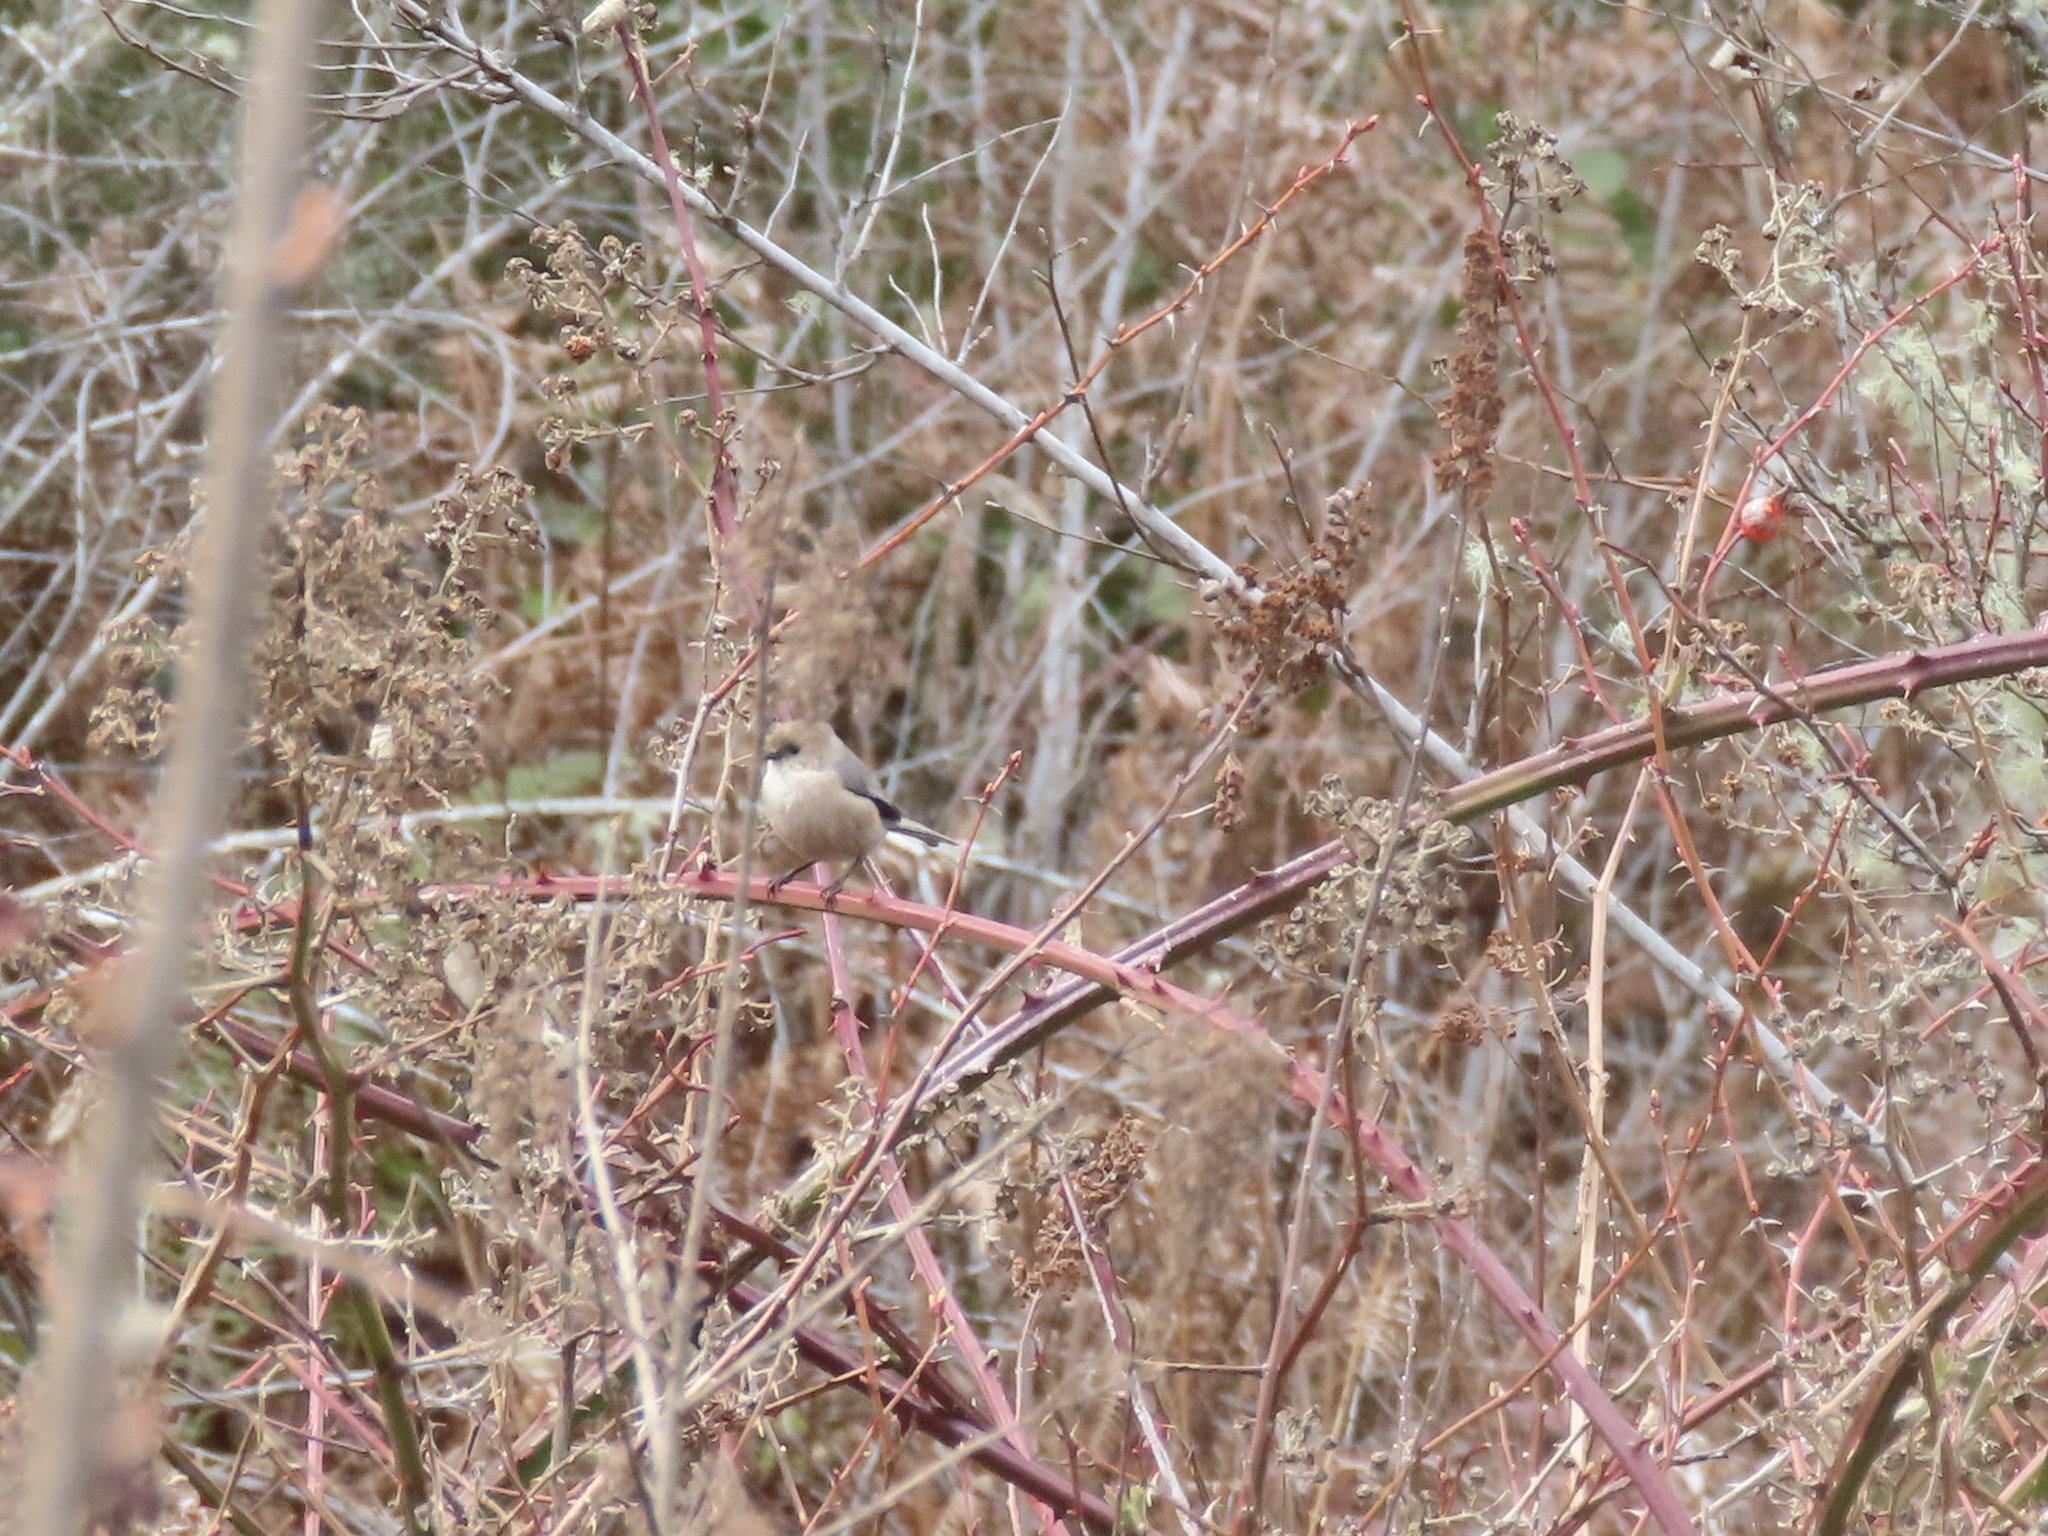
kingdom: Animalia
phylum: Chordata
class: Aves
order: Passeriformes
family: Aegithalidae
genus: Psaltriparus
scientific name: Psaltriparus minimus
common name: American bushtit
